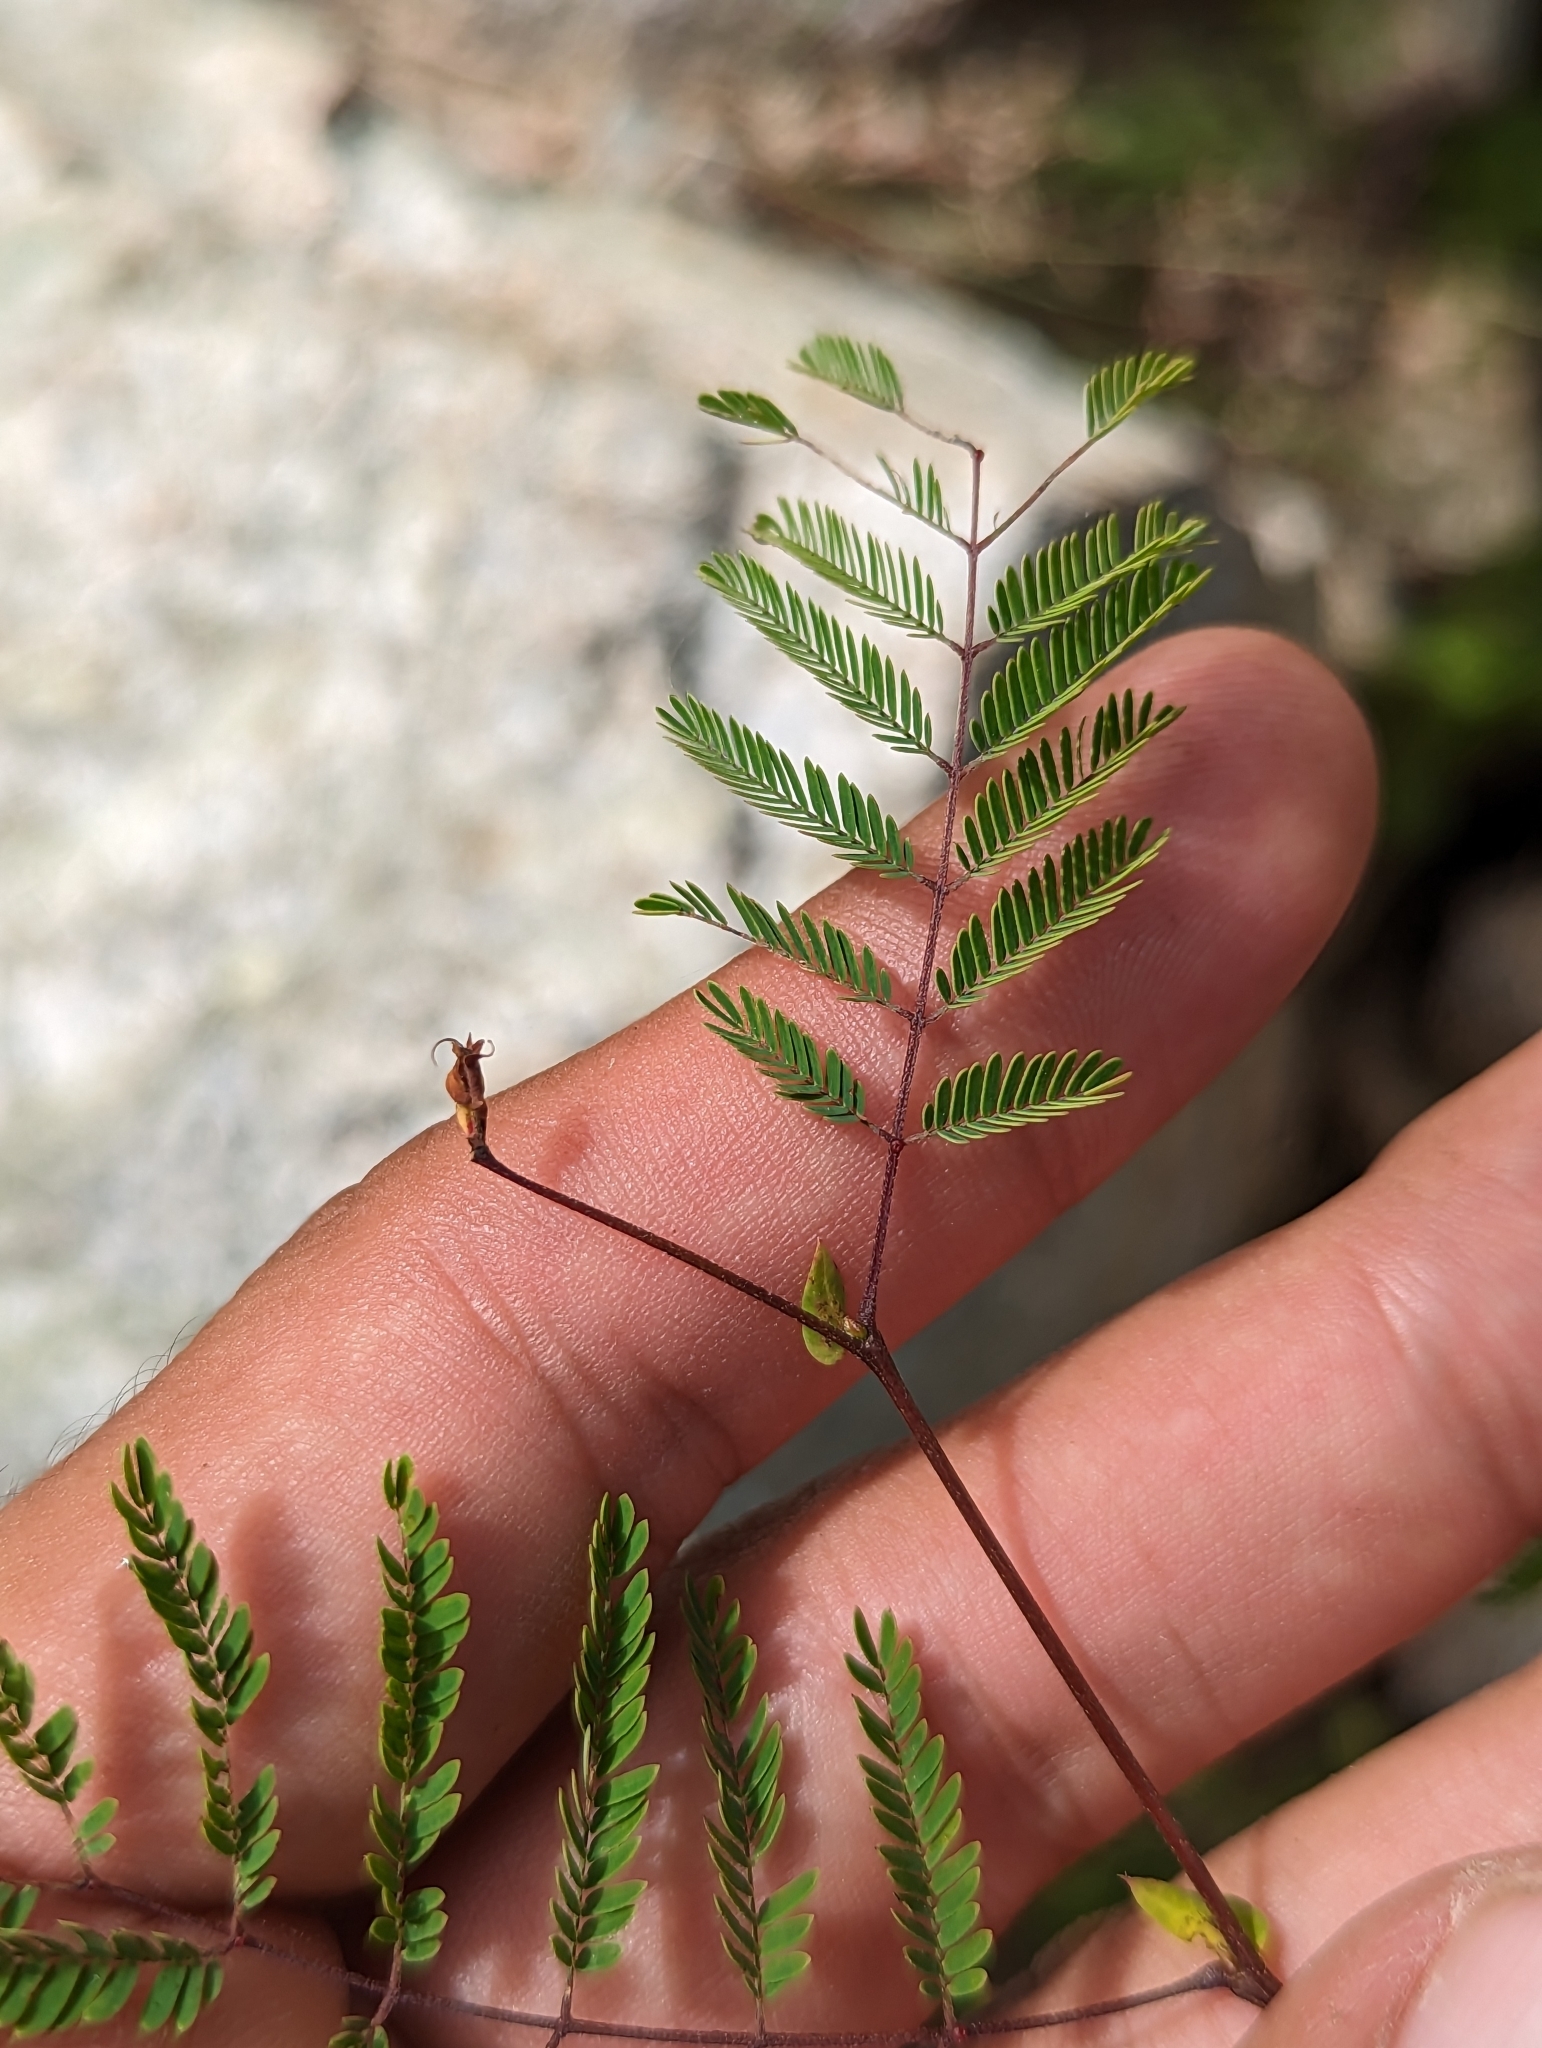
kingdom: Plantae
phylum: Tracheophyta
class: Magnoliopsida
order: Fabales
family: Fabaceae
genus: Lysiloma
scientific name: Lysiloma divaricatum
